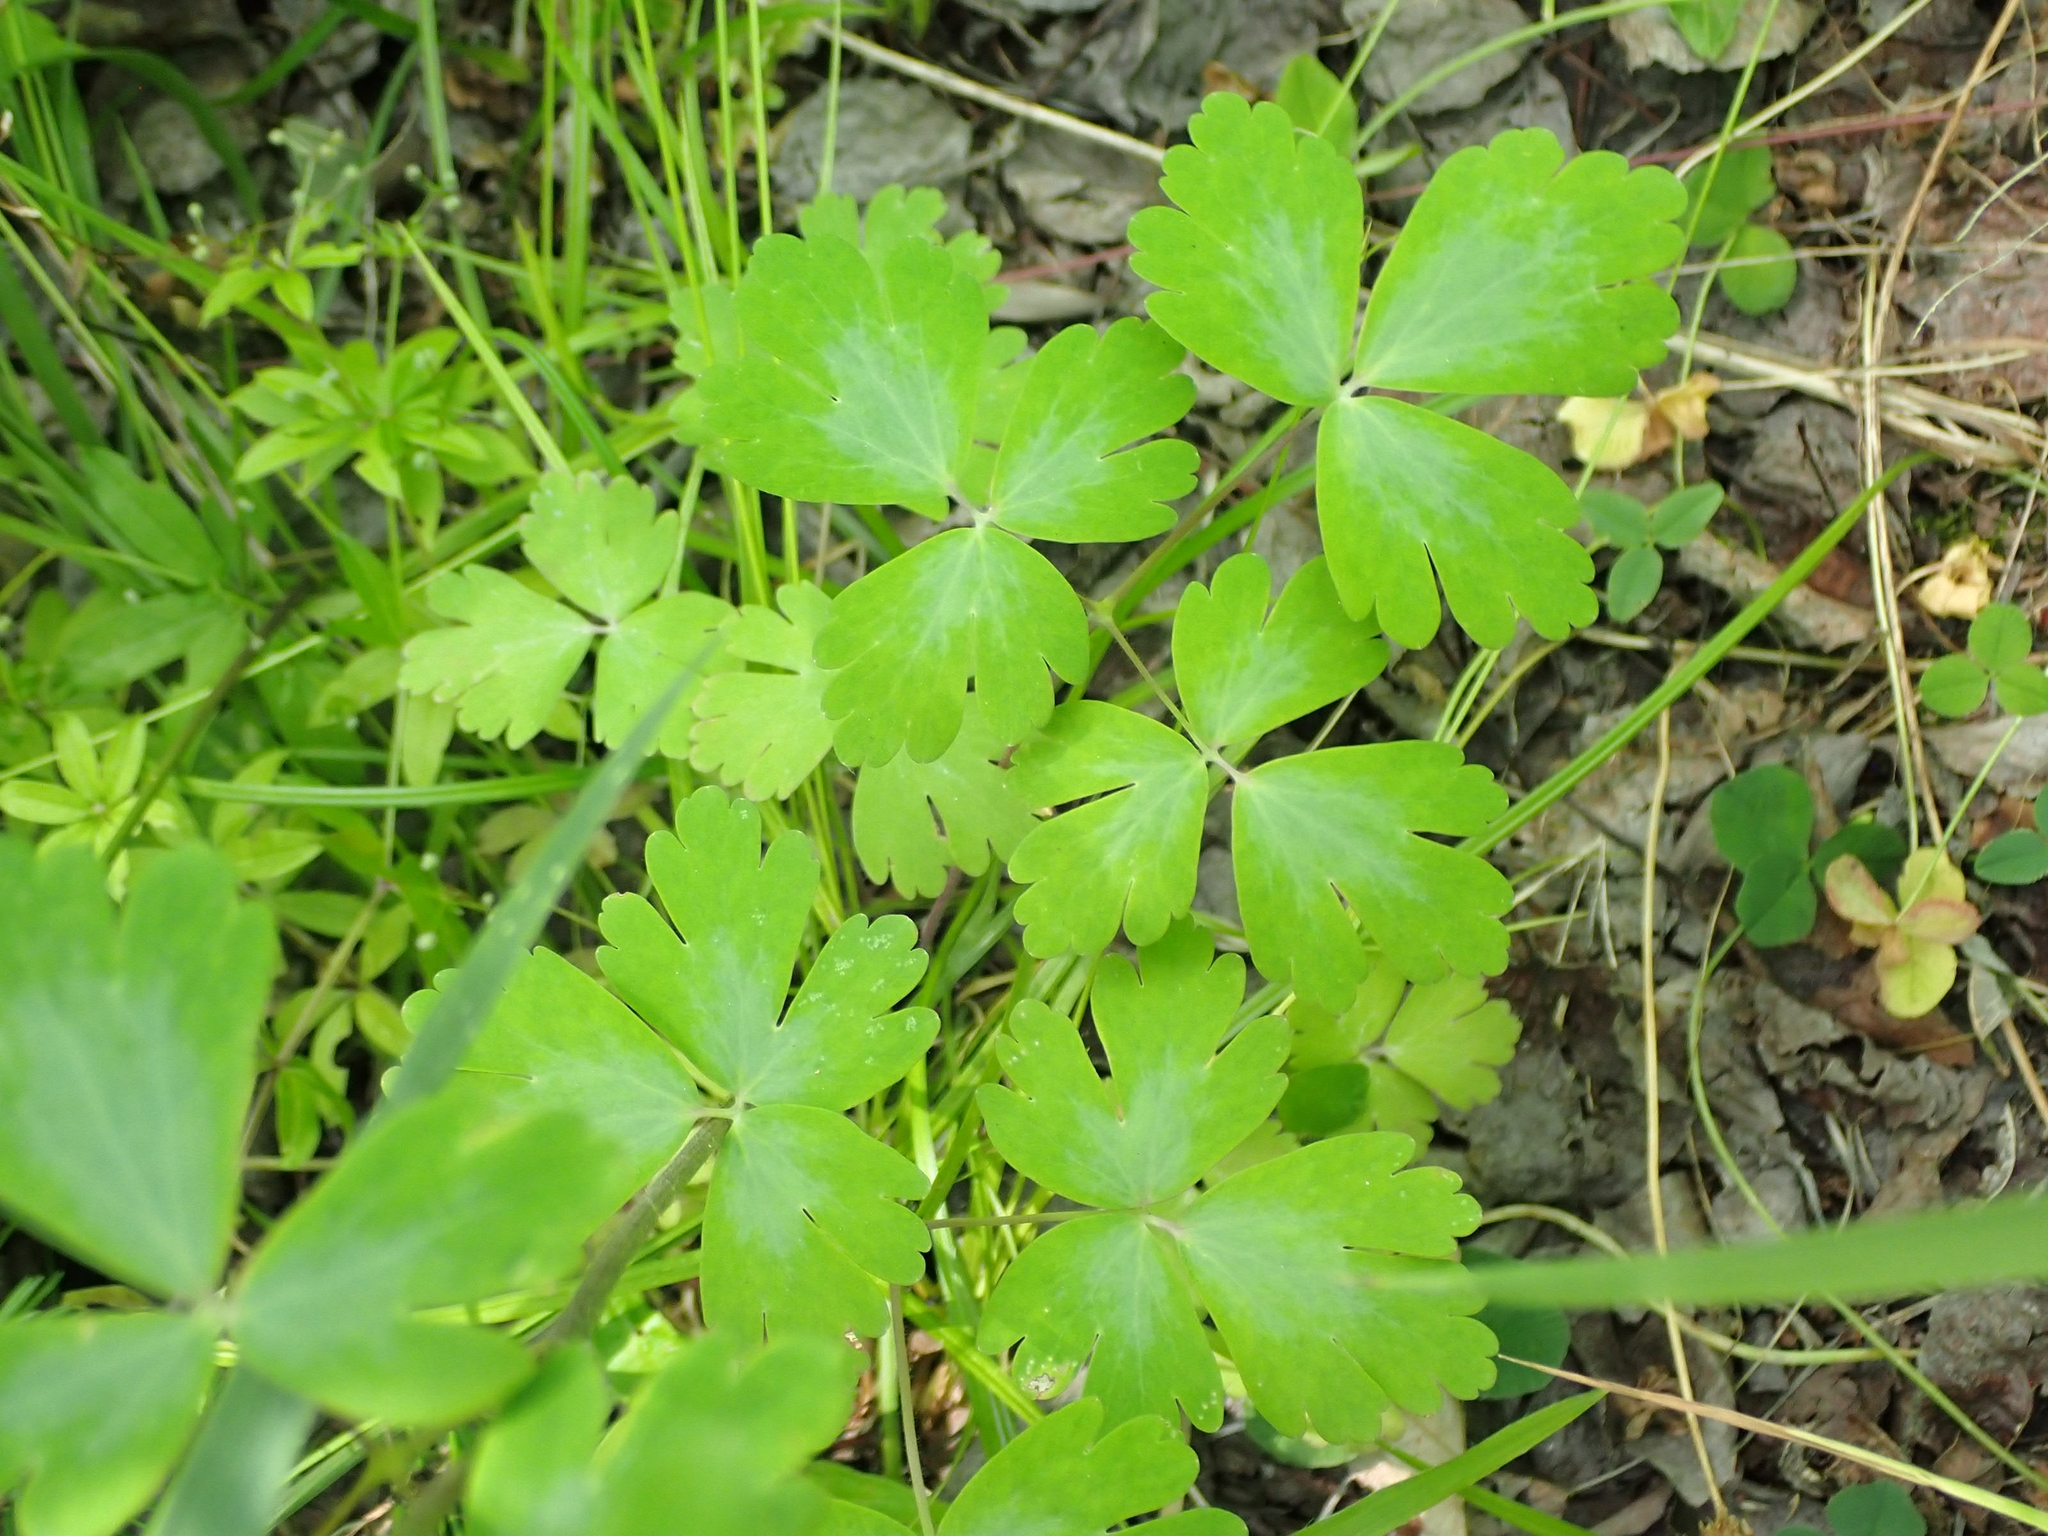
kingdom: Plantae
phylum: Tracheophyta
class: Magnoliopsida
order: Ranunculales
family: Ranunculaceae
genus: Aquilegia
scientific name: Aquilegia canadensis
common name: American columbine
